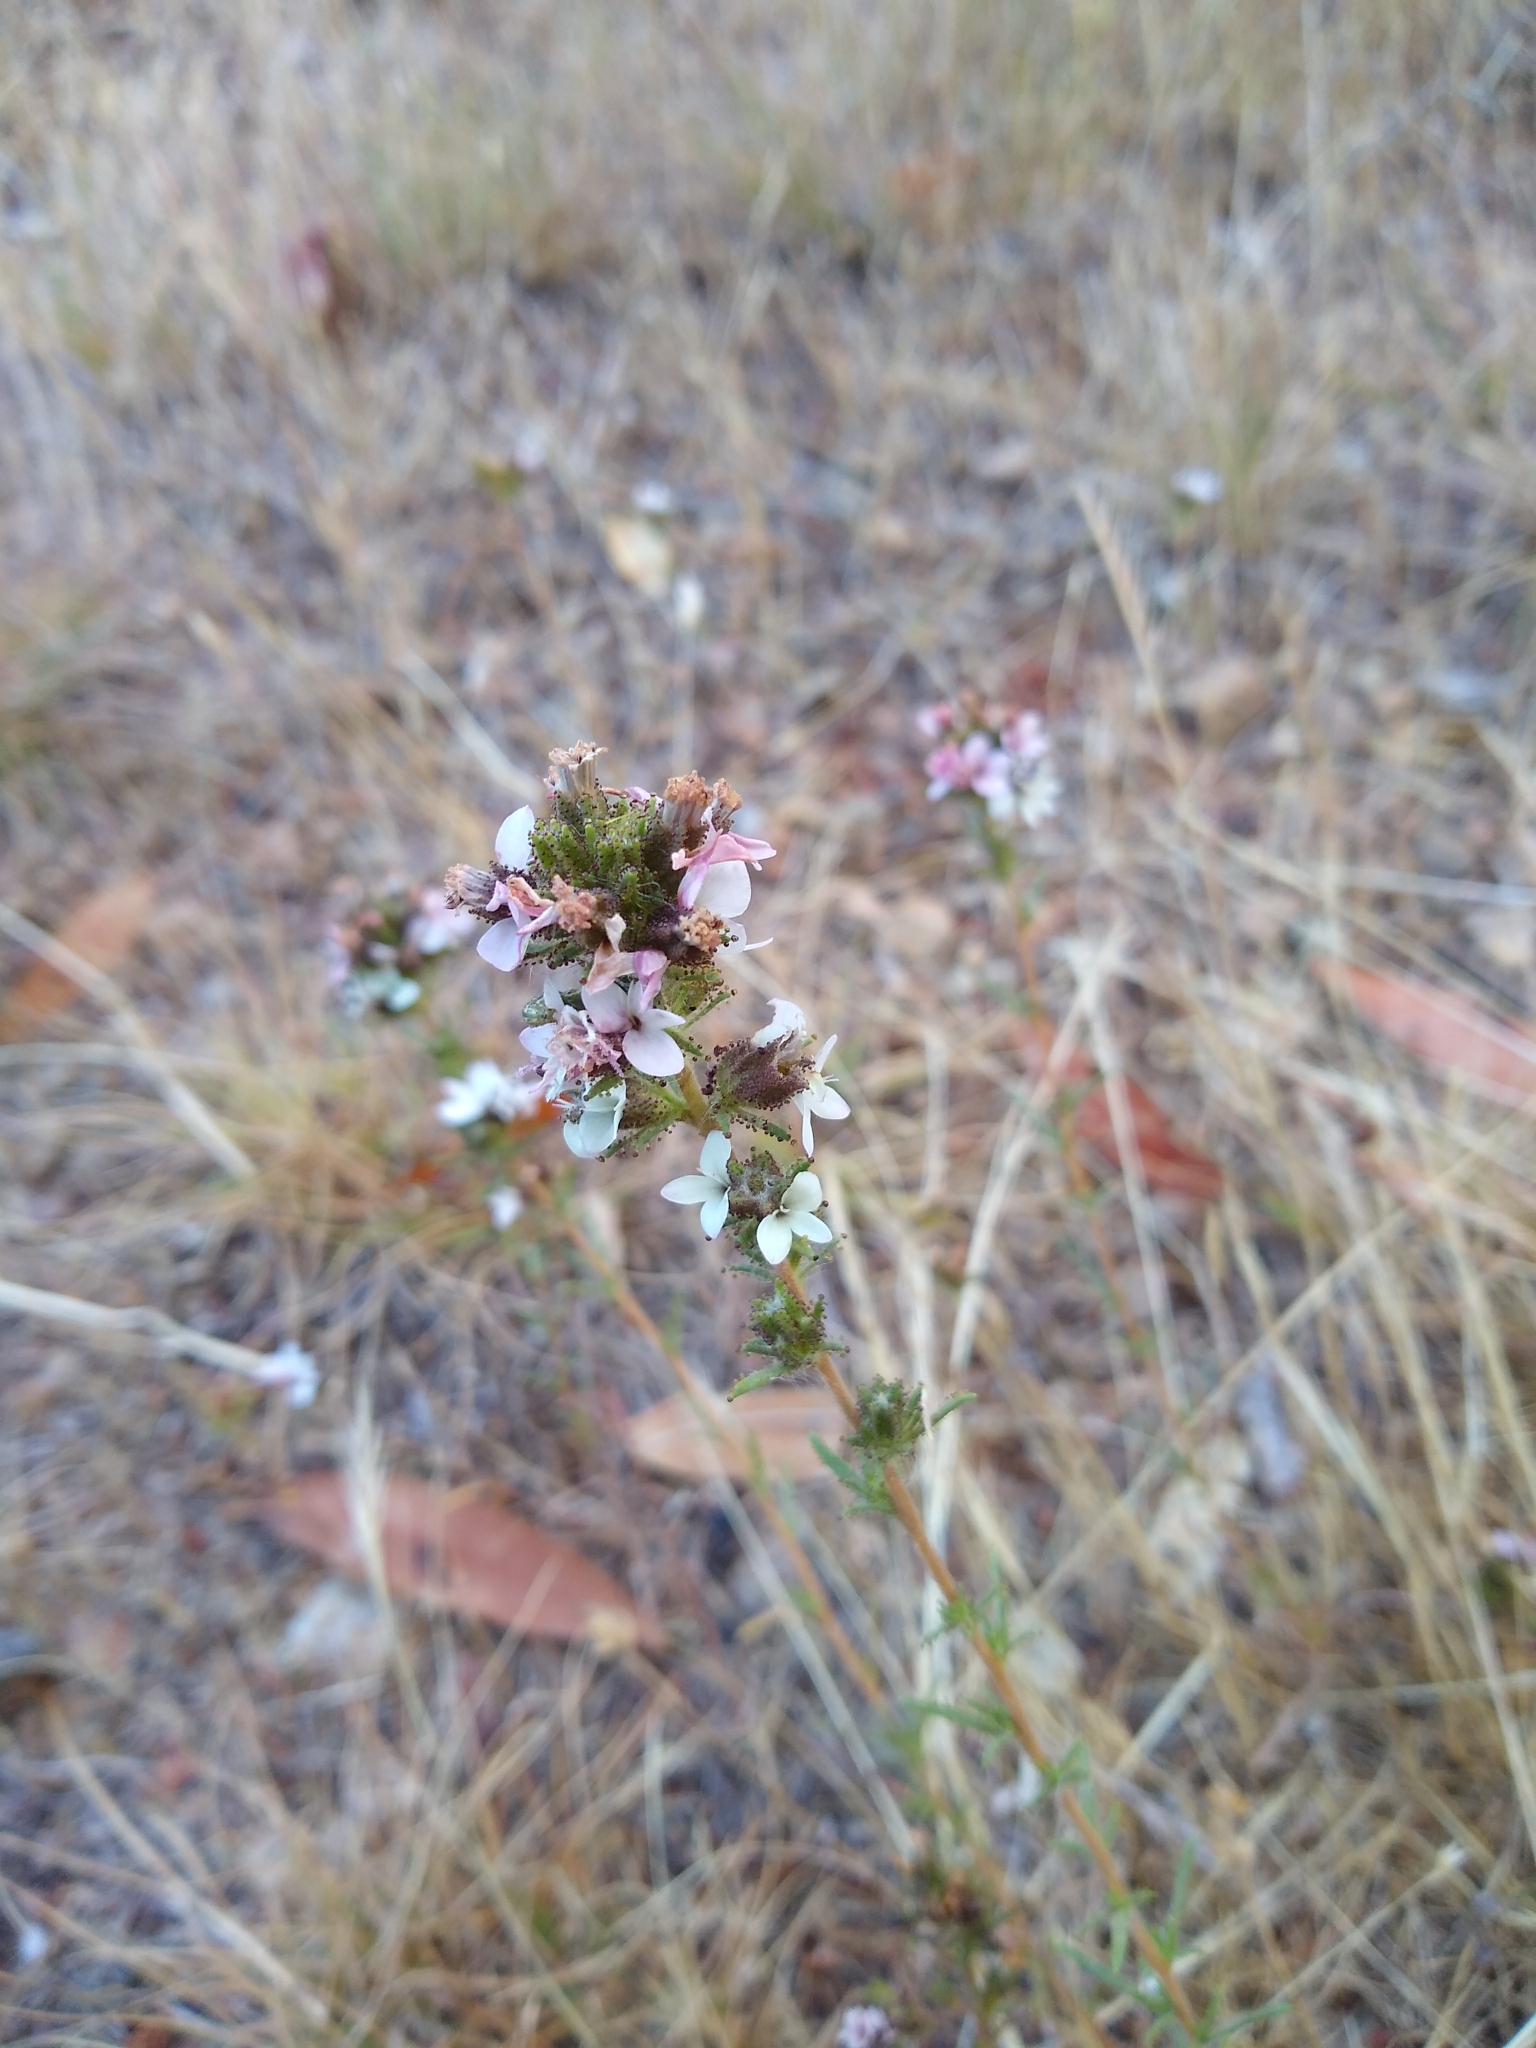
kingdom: Plantae
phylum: Tracheophyta
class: Magnoliopsida
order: Asterales
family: Asteraceae
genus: Calycadenia
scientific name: Calycadenia multiglandulosa
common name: Sticky calycadenia
